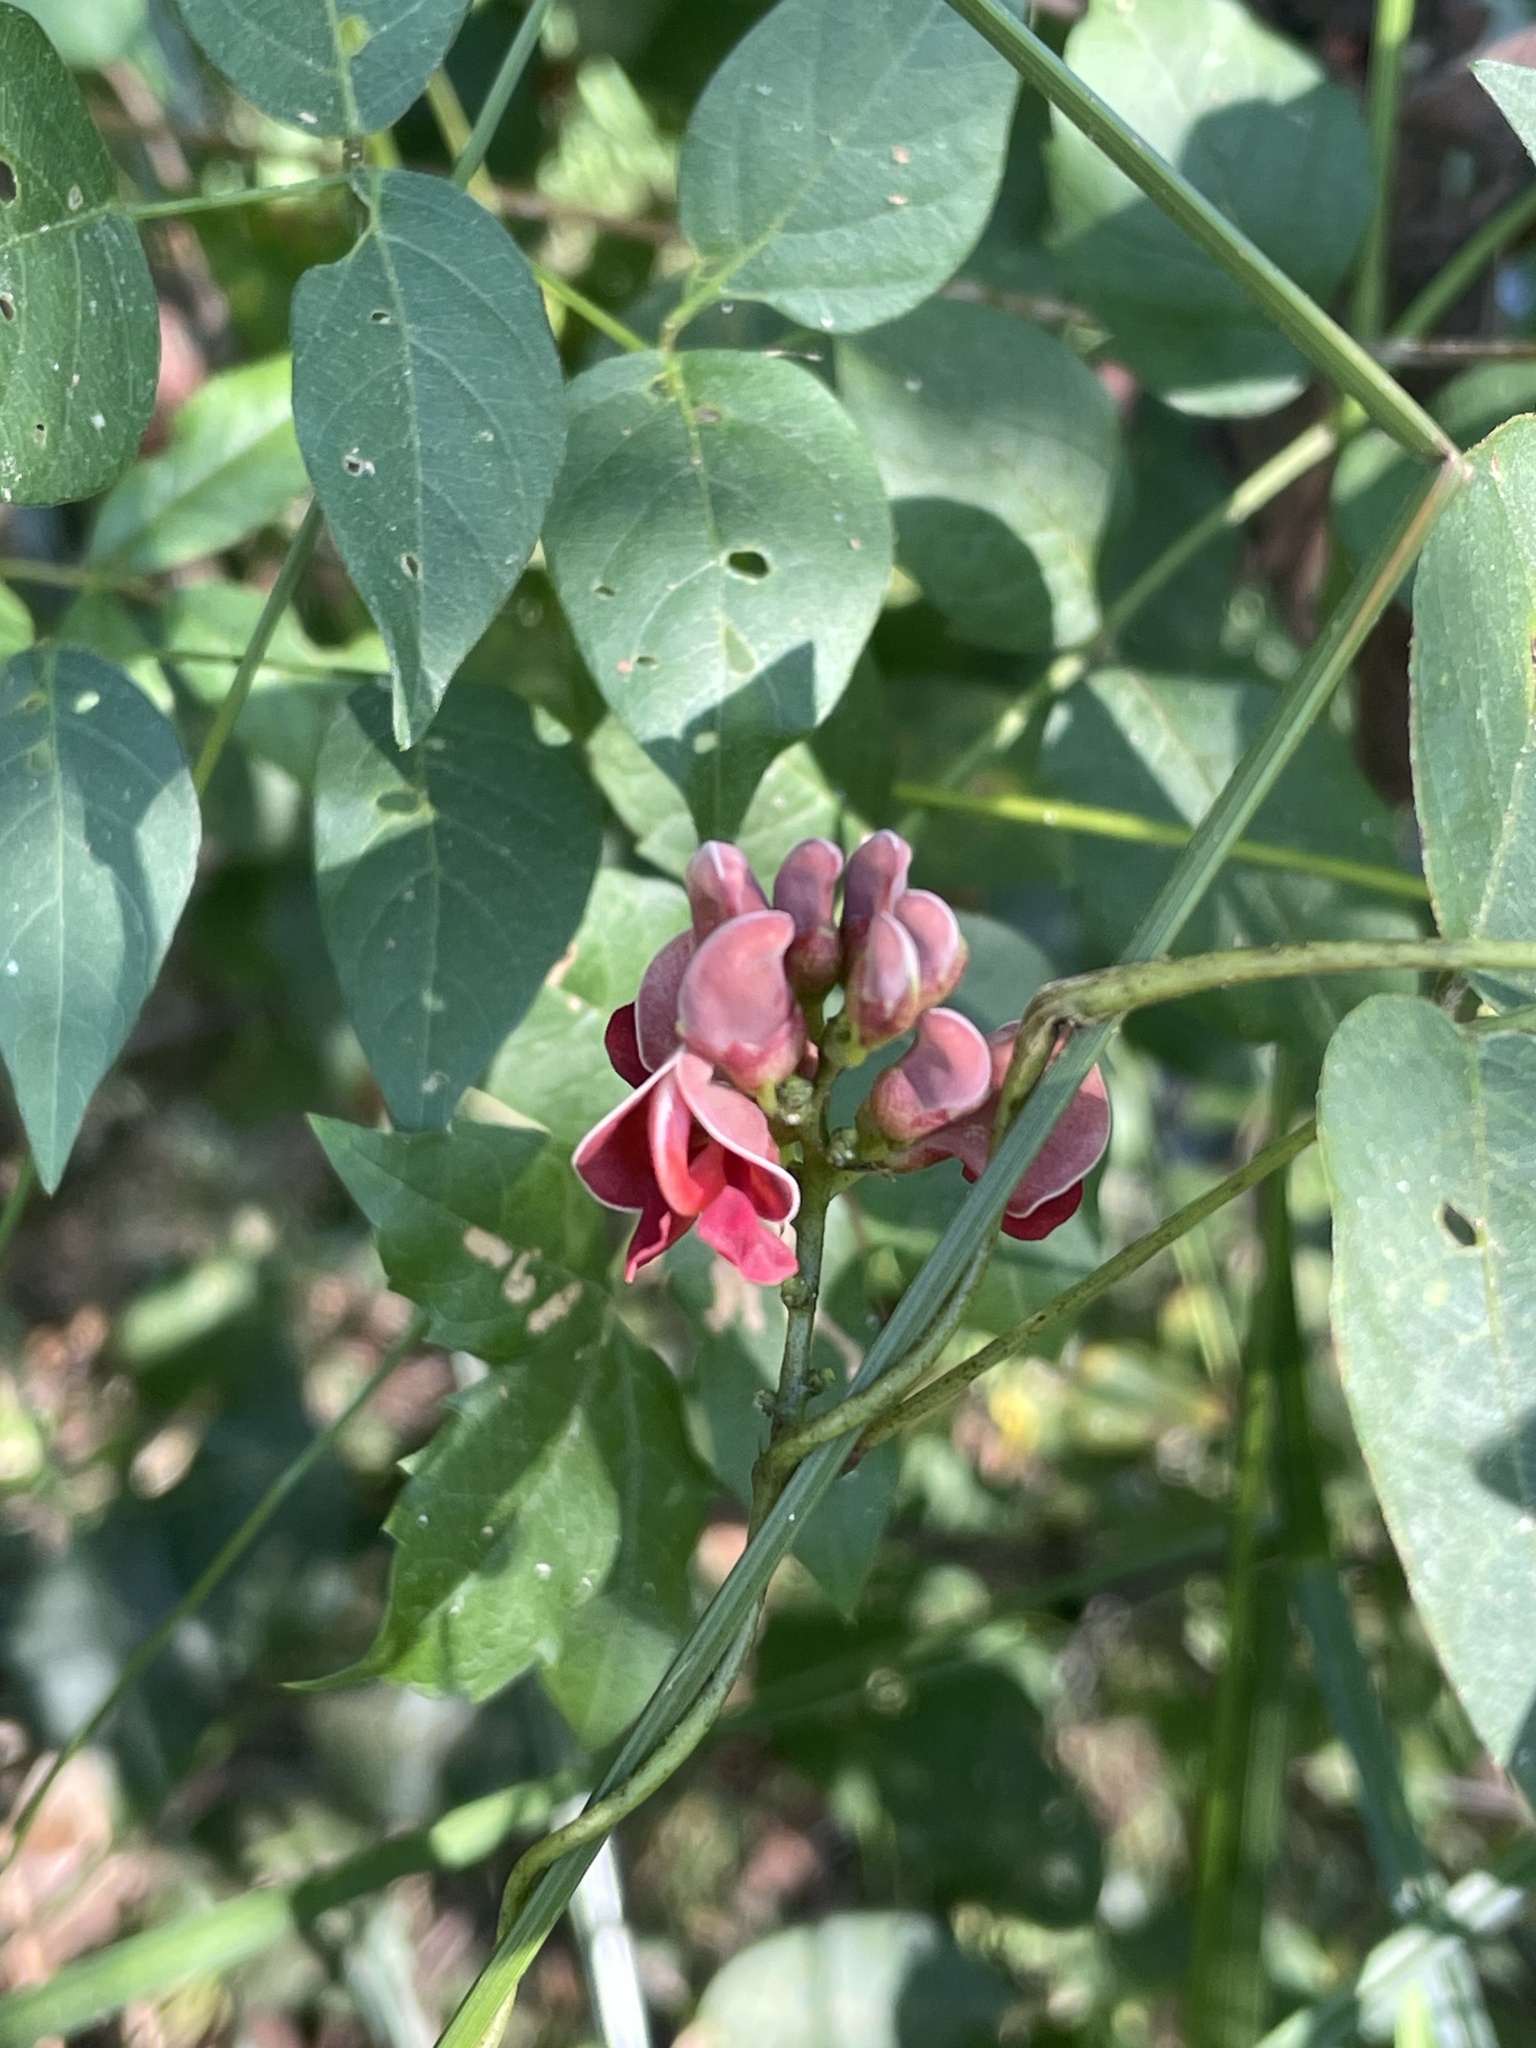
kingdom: Plantae
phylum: Tracheophyta
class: Magnoliopsida
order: Fabales
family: Fabaceae
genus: Apios
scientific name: Apios americana
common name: American potato-bean
